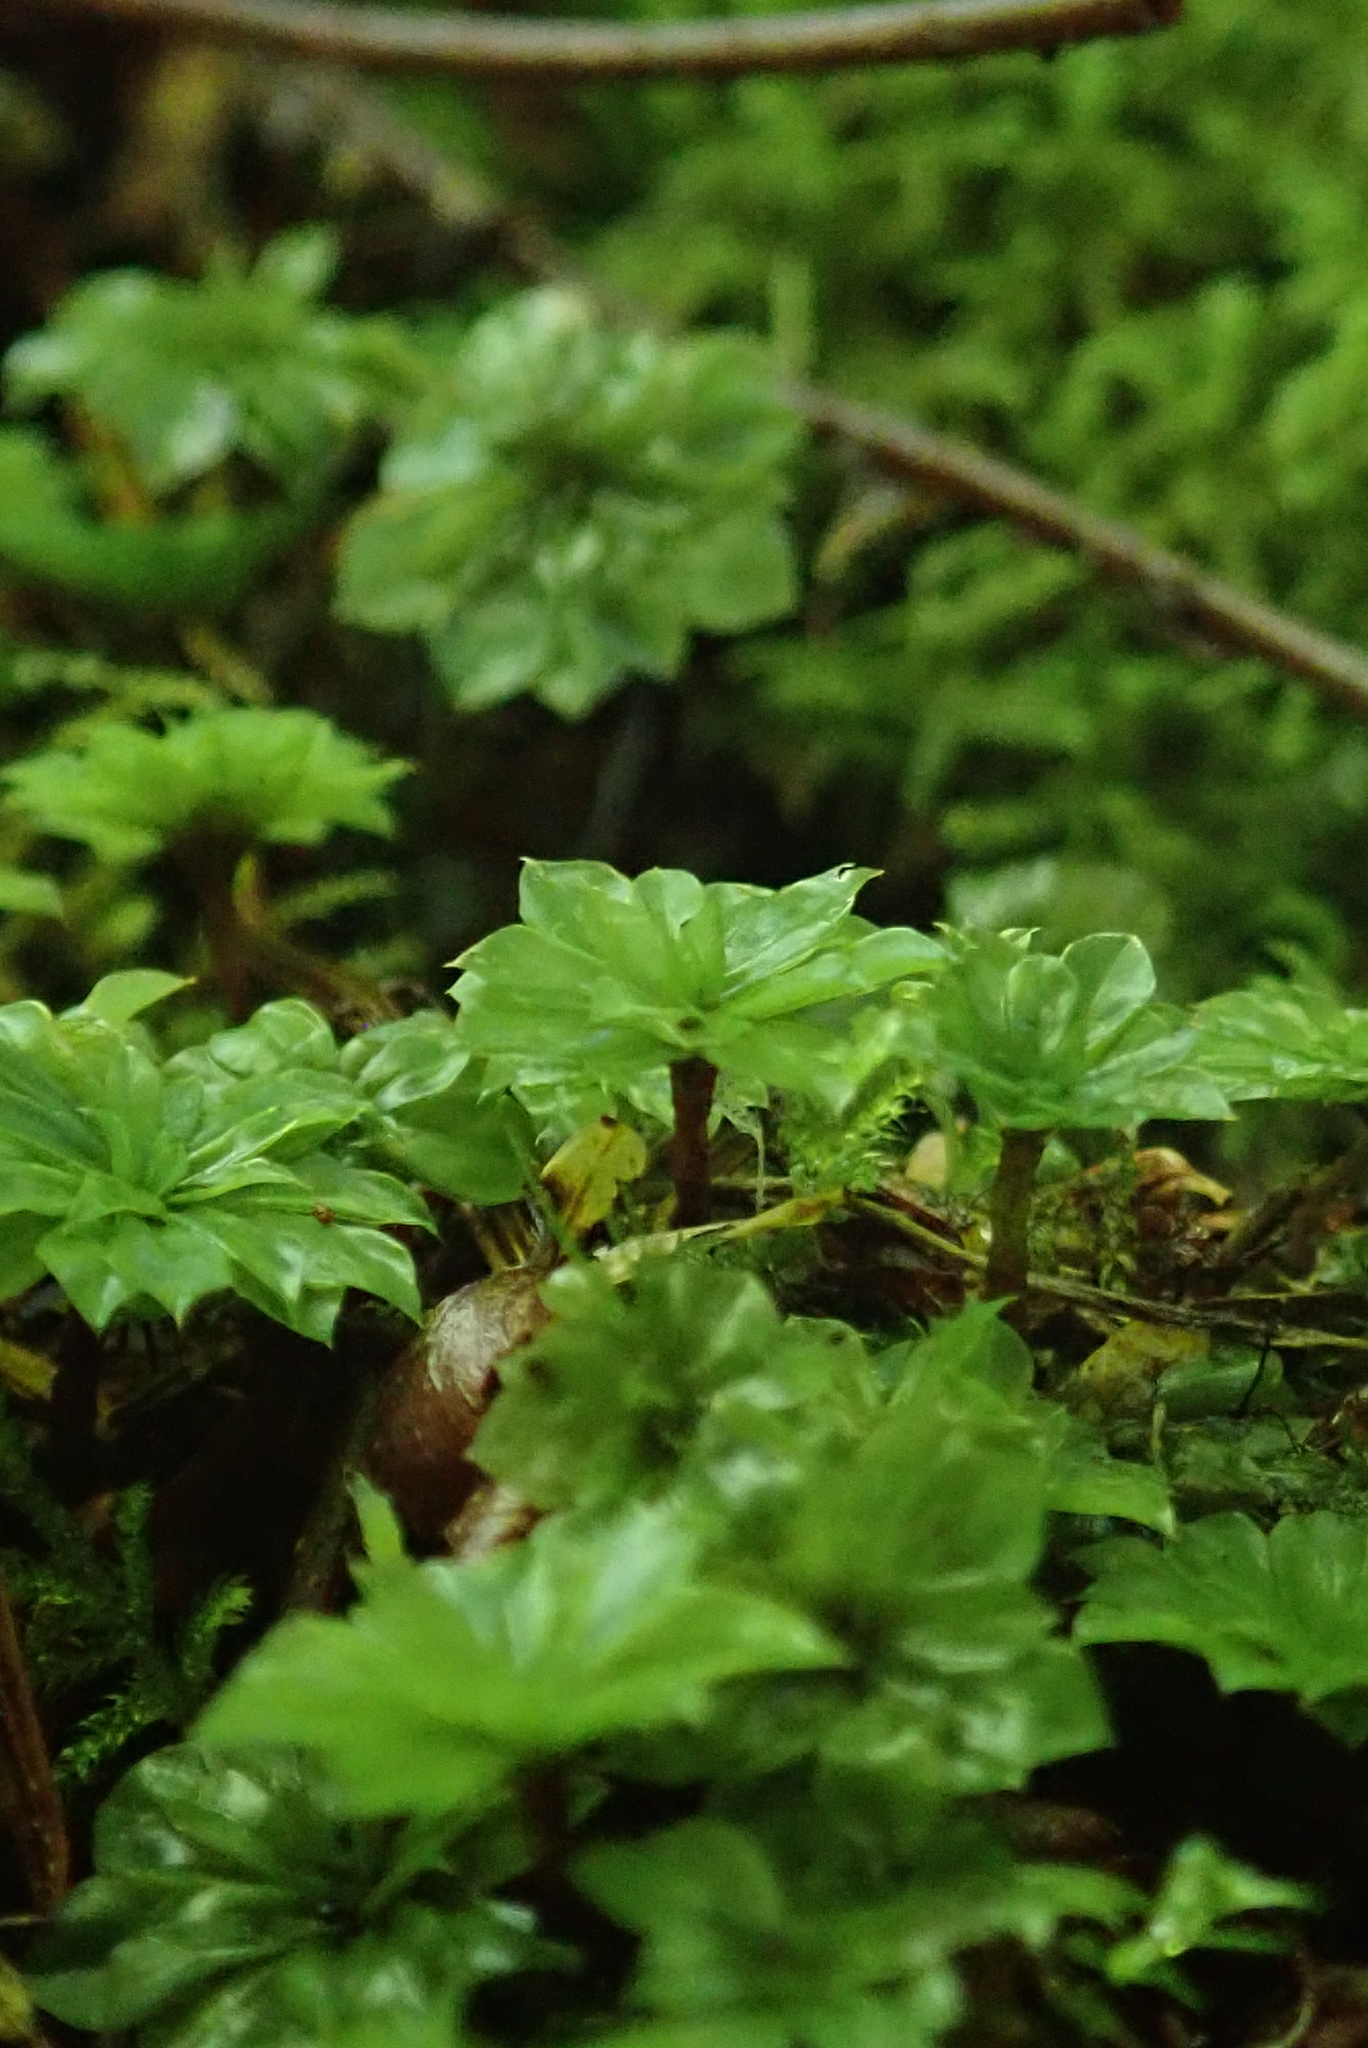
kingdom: Plantae
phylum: Bryophyta
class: Bryopsida
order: Bryales
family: Bryaceae
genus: Rhodobryum
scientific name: Rhodobryum ontariense
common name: Ontario rhodobryum moss
